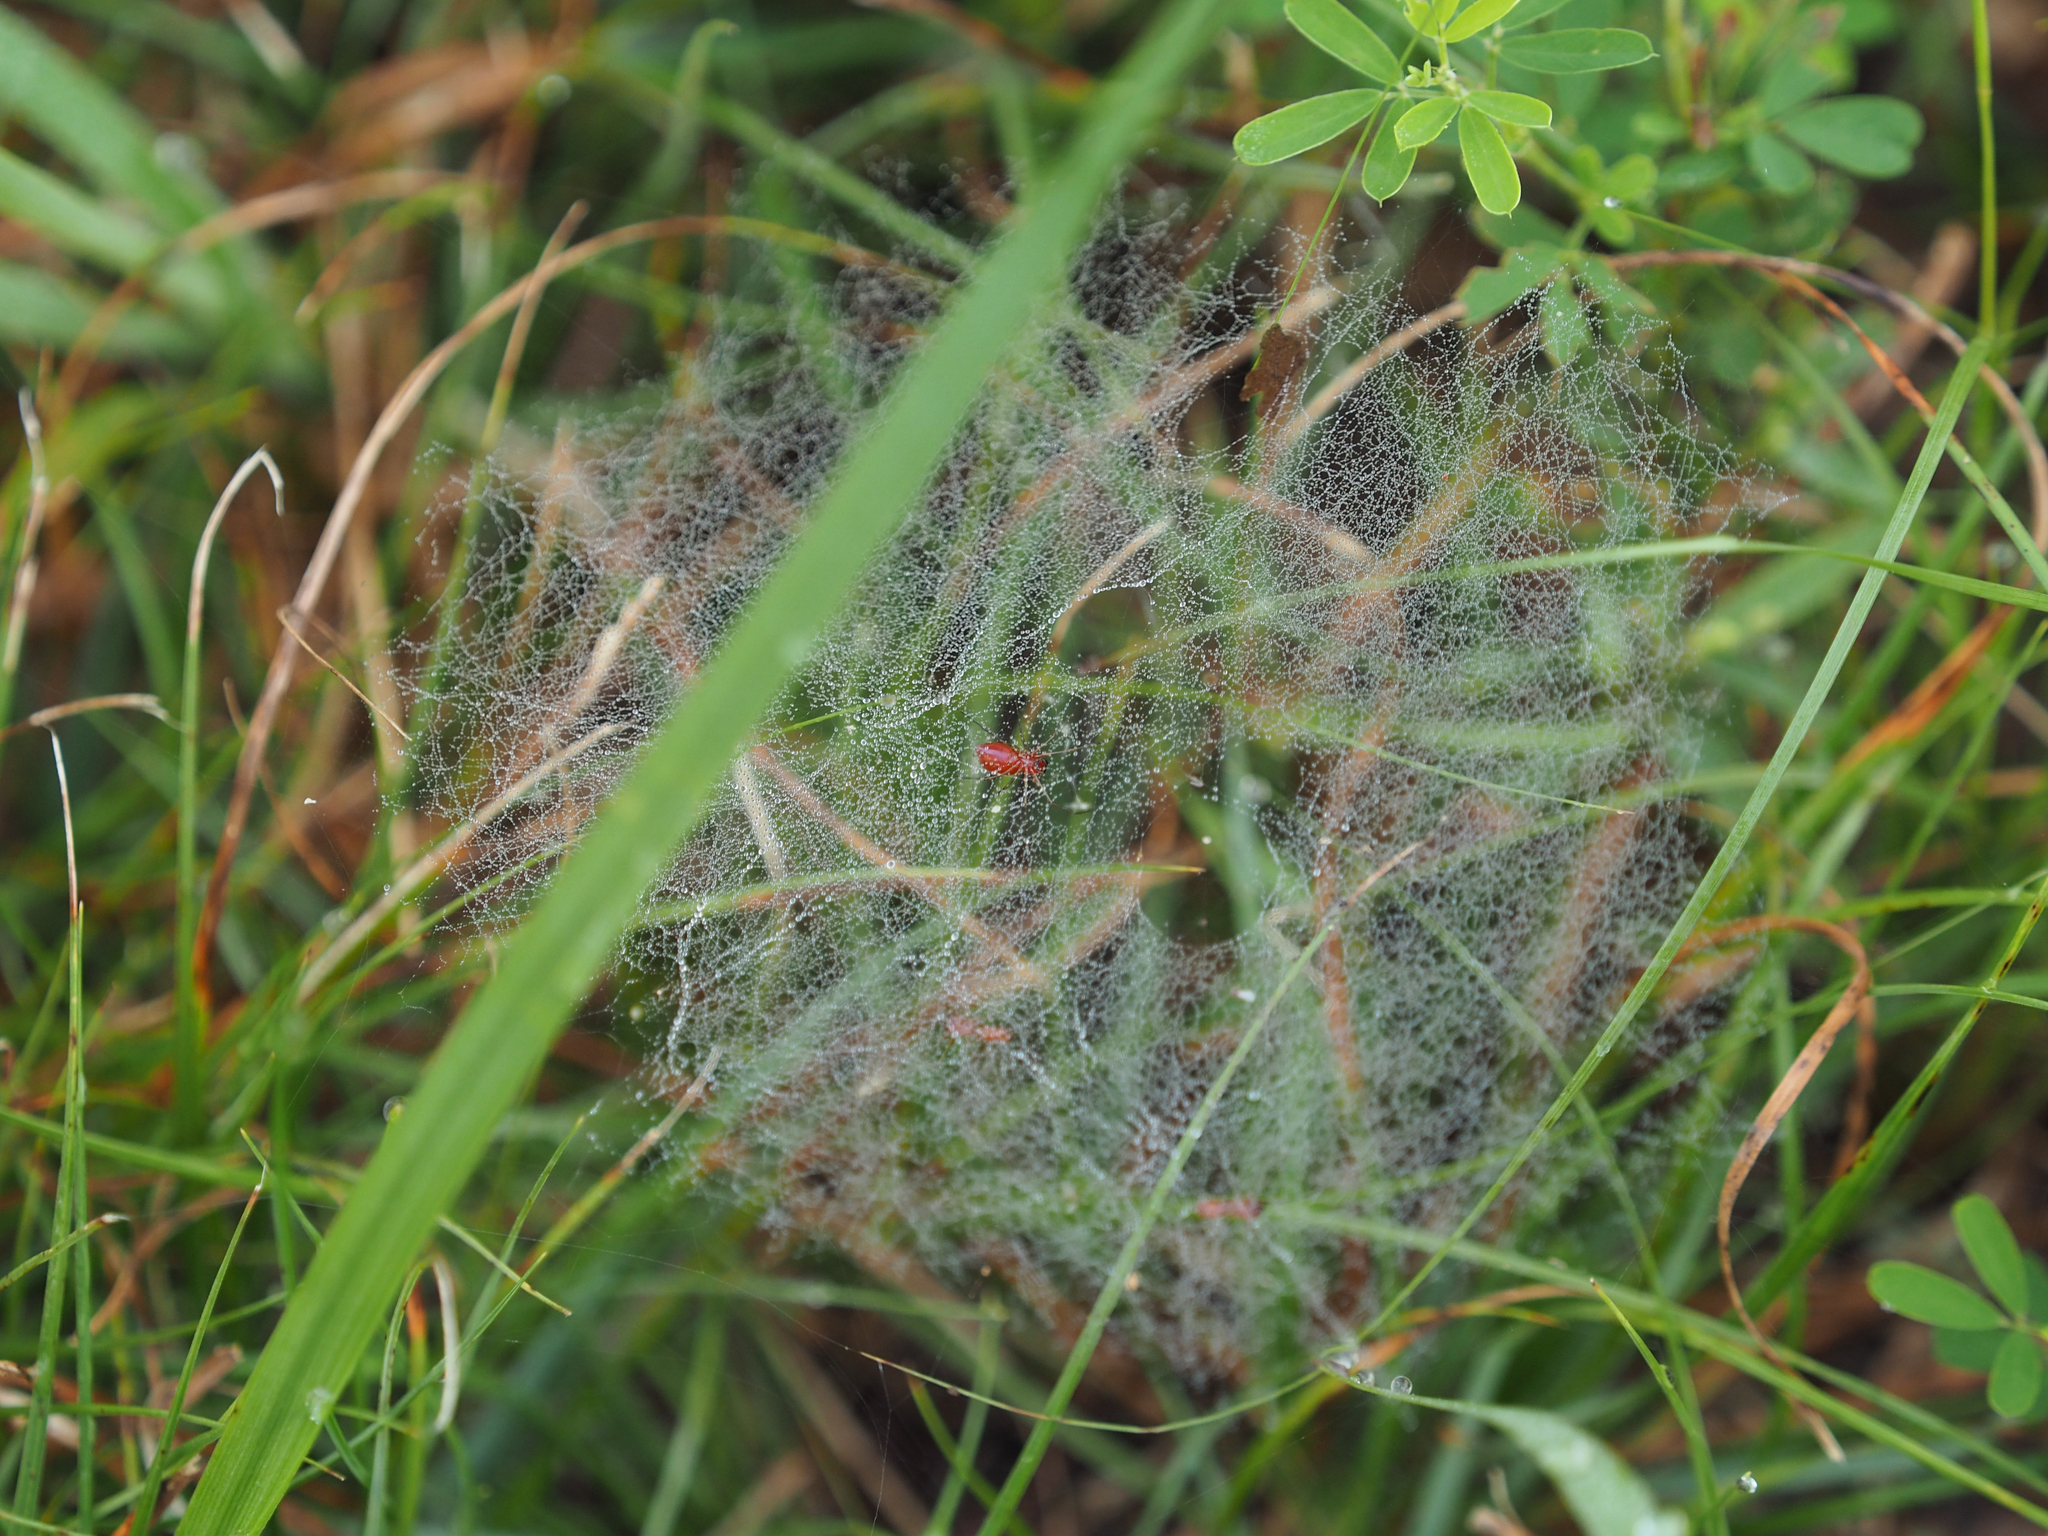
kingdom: Animalia
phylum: Arthropoda
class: Arachnida
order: Araneae
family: Linyphiidae
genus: Florinda
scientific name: Florinda coccinea
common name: Black-tailed red sheetweaver
